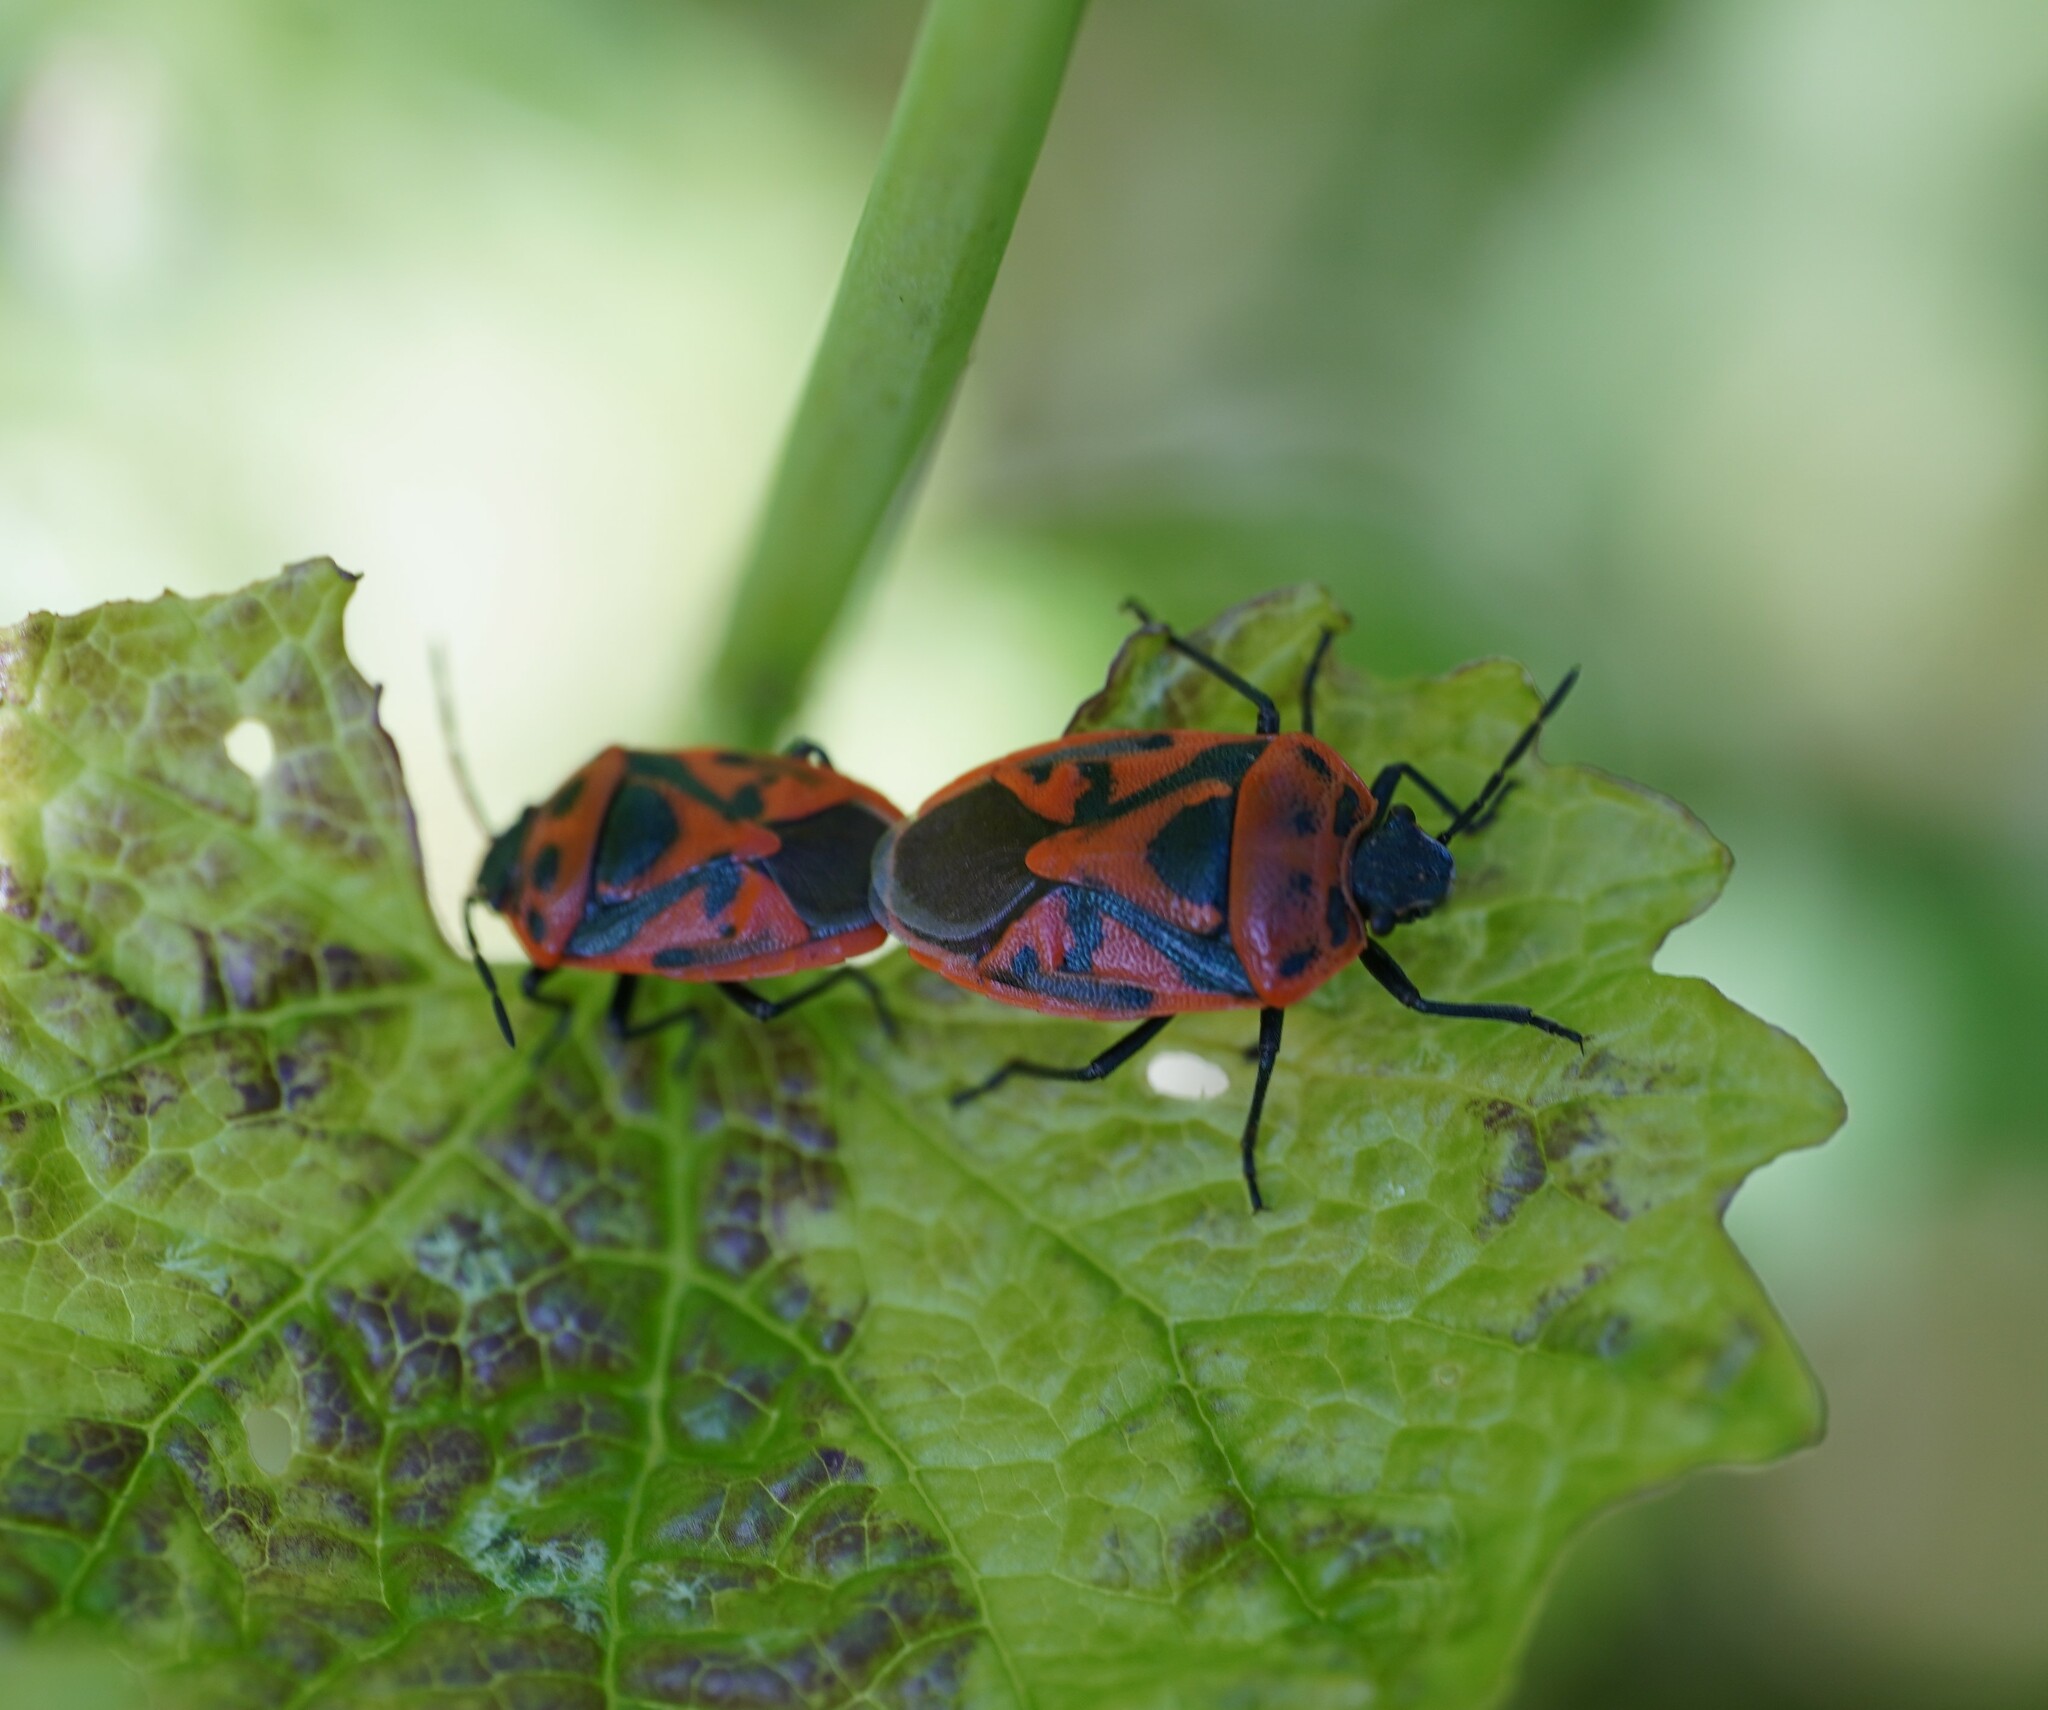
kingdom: Animalia
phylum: Arthropoda
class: Insecta
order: Hemiptera
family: Pentatomidae
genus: Eurydema
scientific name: Eurydema ornata
